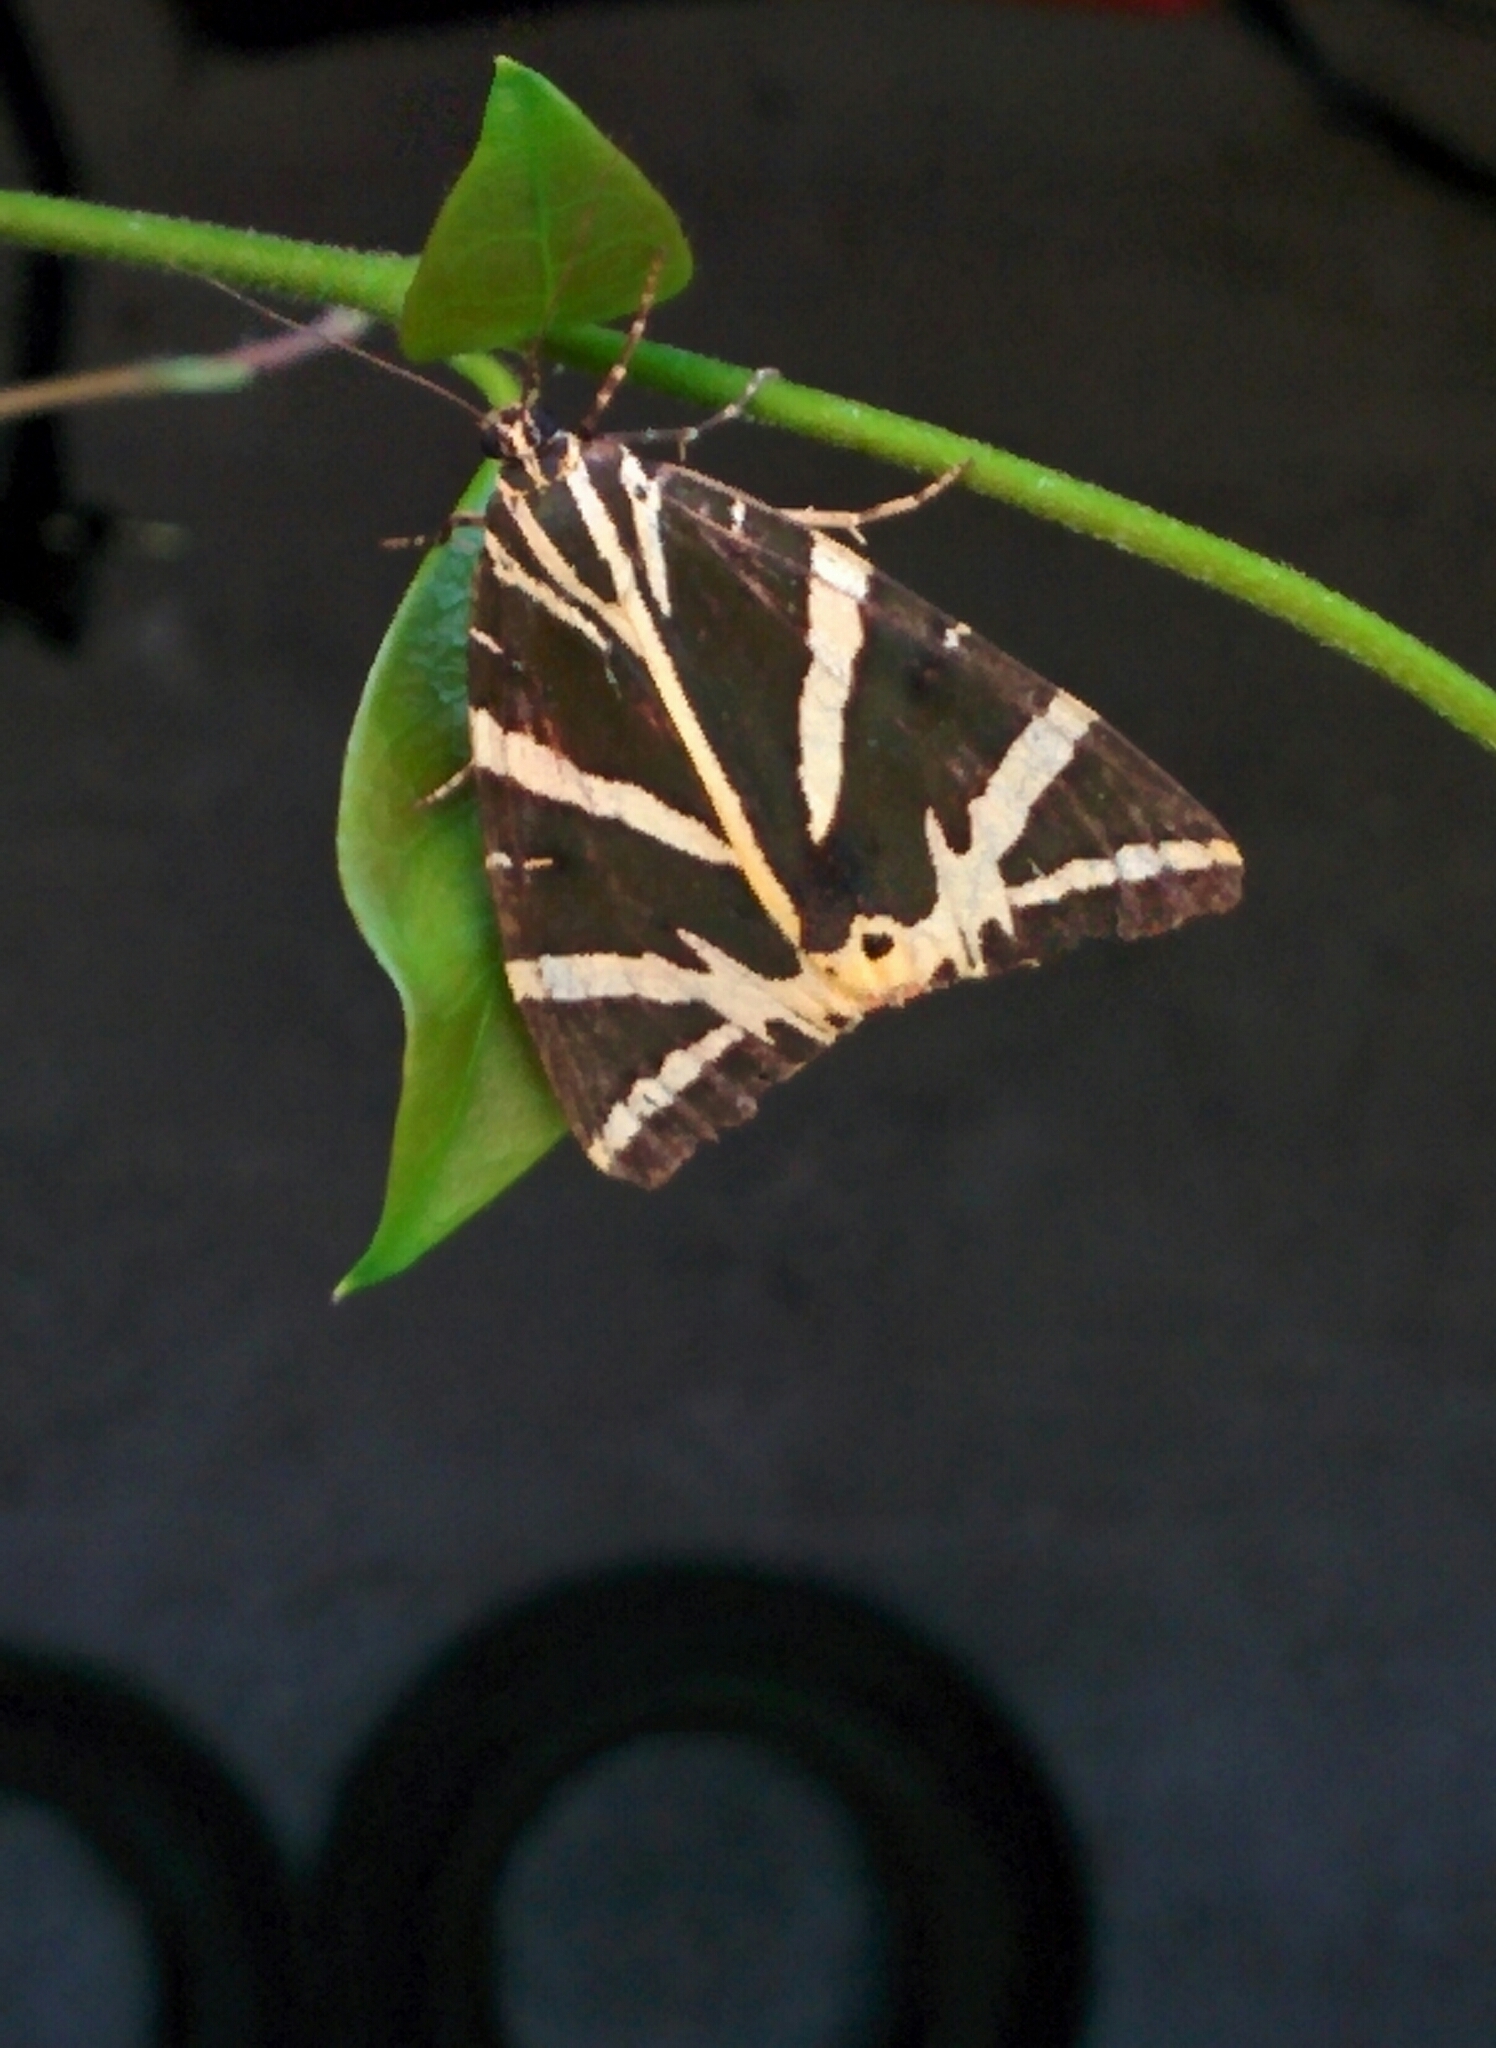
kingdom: Animalia
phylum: Arthropoda
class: Insecta
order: Lepidoptera
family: Erebidae
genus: Euplagia
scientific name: Euplagia quadripunctaria
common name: Jersey tiger
